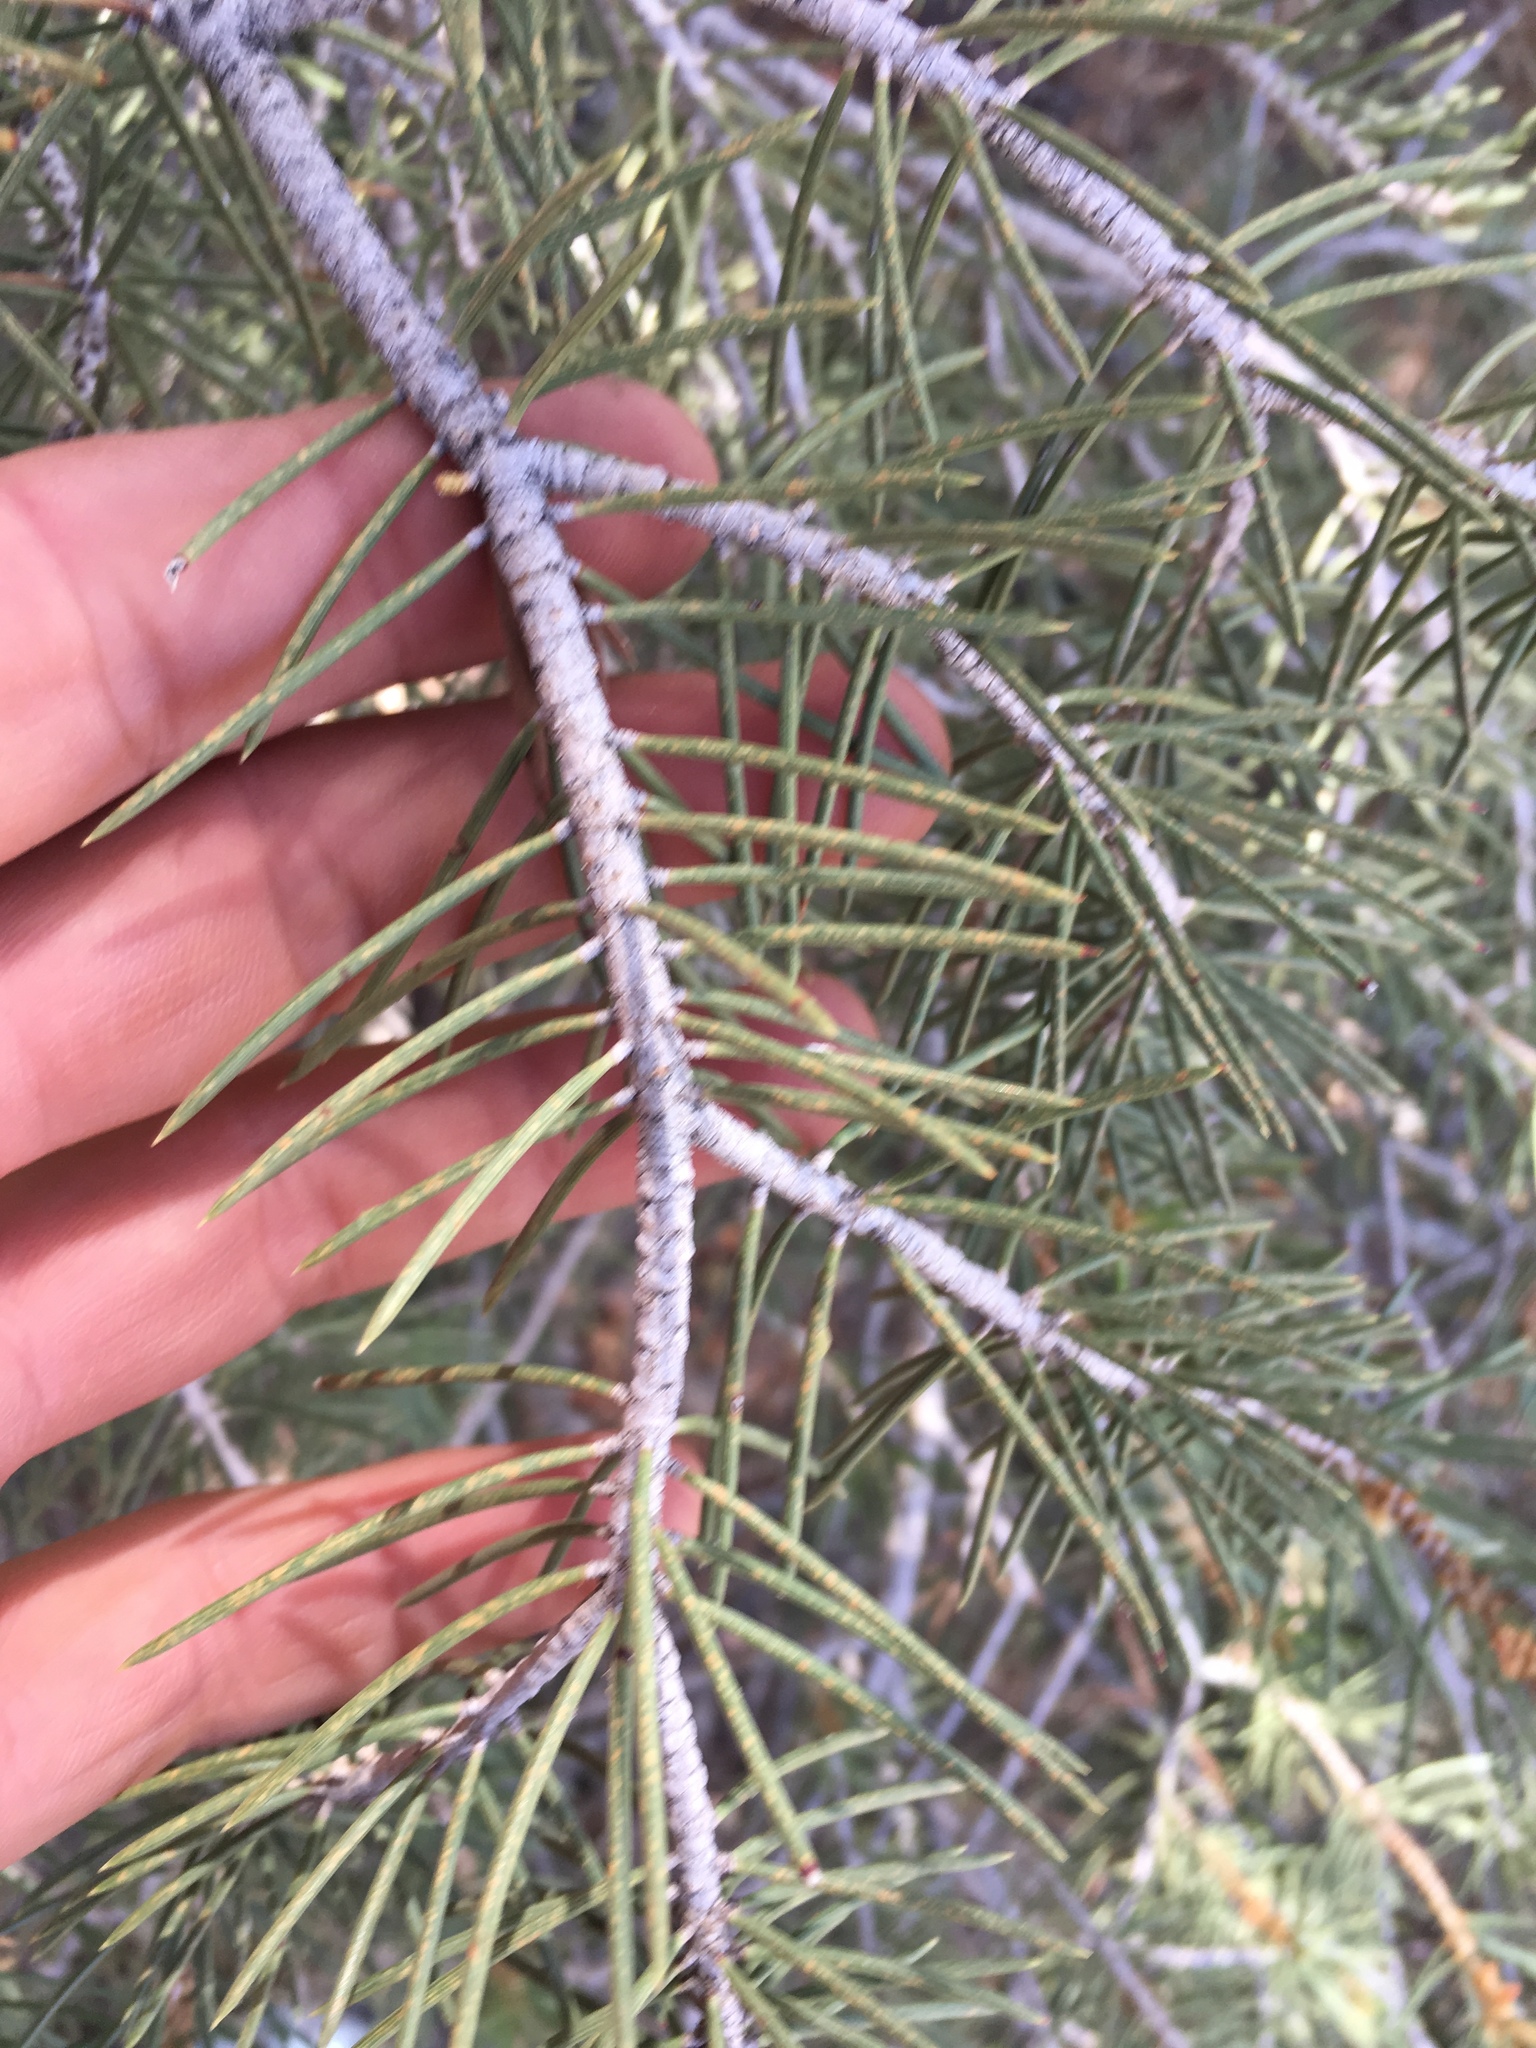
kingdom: Plantae
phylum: Tracheophyta
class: Pinopsida
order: Pinales
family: Pinaceae
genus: Pinus
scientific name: Pinus monophylla
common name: One-leaved nut pine
